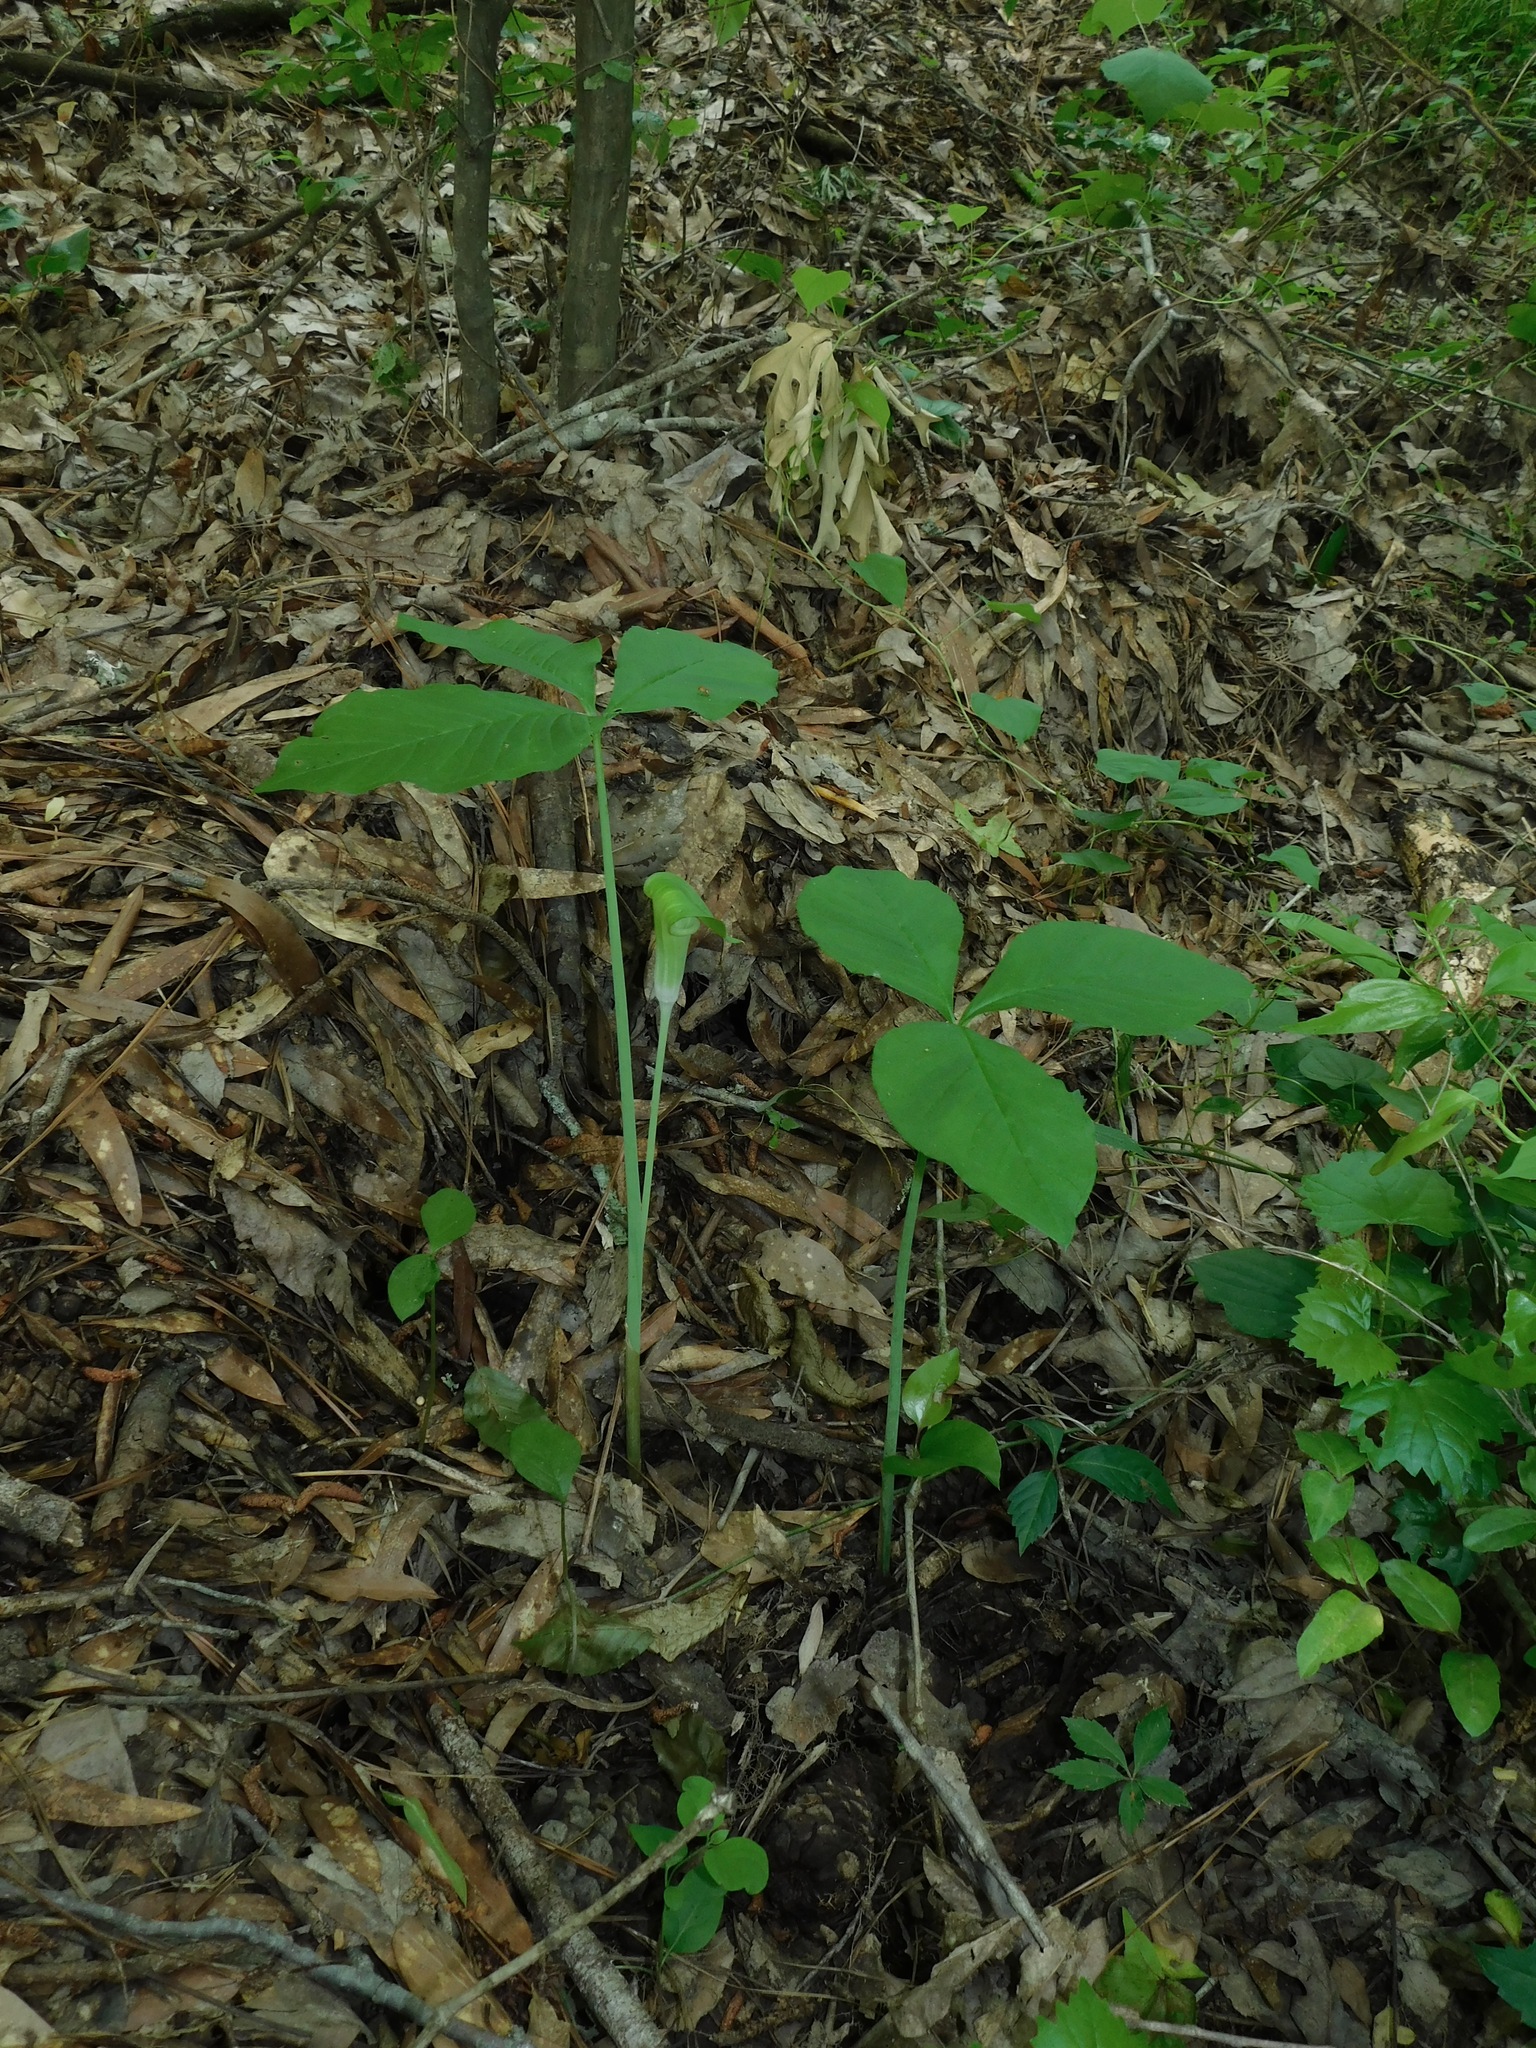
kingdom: Plantae
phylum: Tracheophyta
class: Liliopsida
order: Alismatales
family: Araceae
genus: Arisaema
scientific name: Arisaema pusillum
